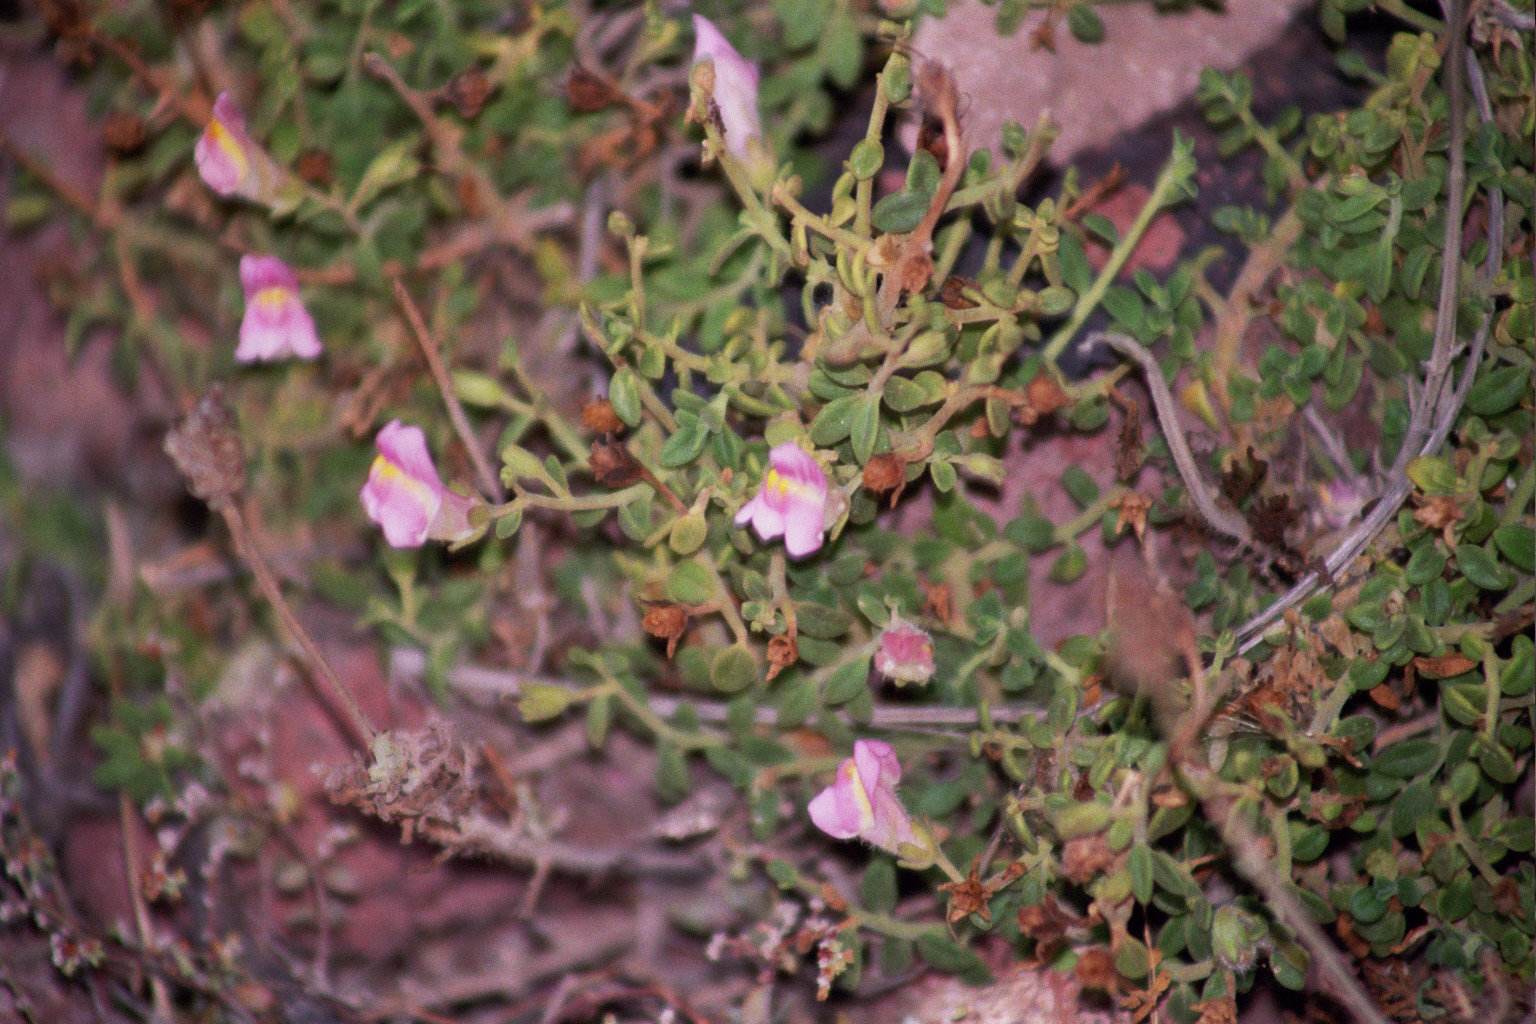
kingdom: Plantae
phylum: Tracheophyta
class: Magnoliopsida
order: Lamiales
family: Plantaginaceae
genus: Antirrhinum
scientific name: Antirrhinum charidemi
